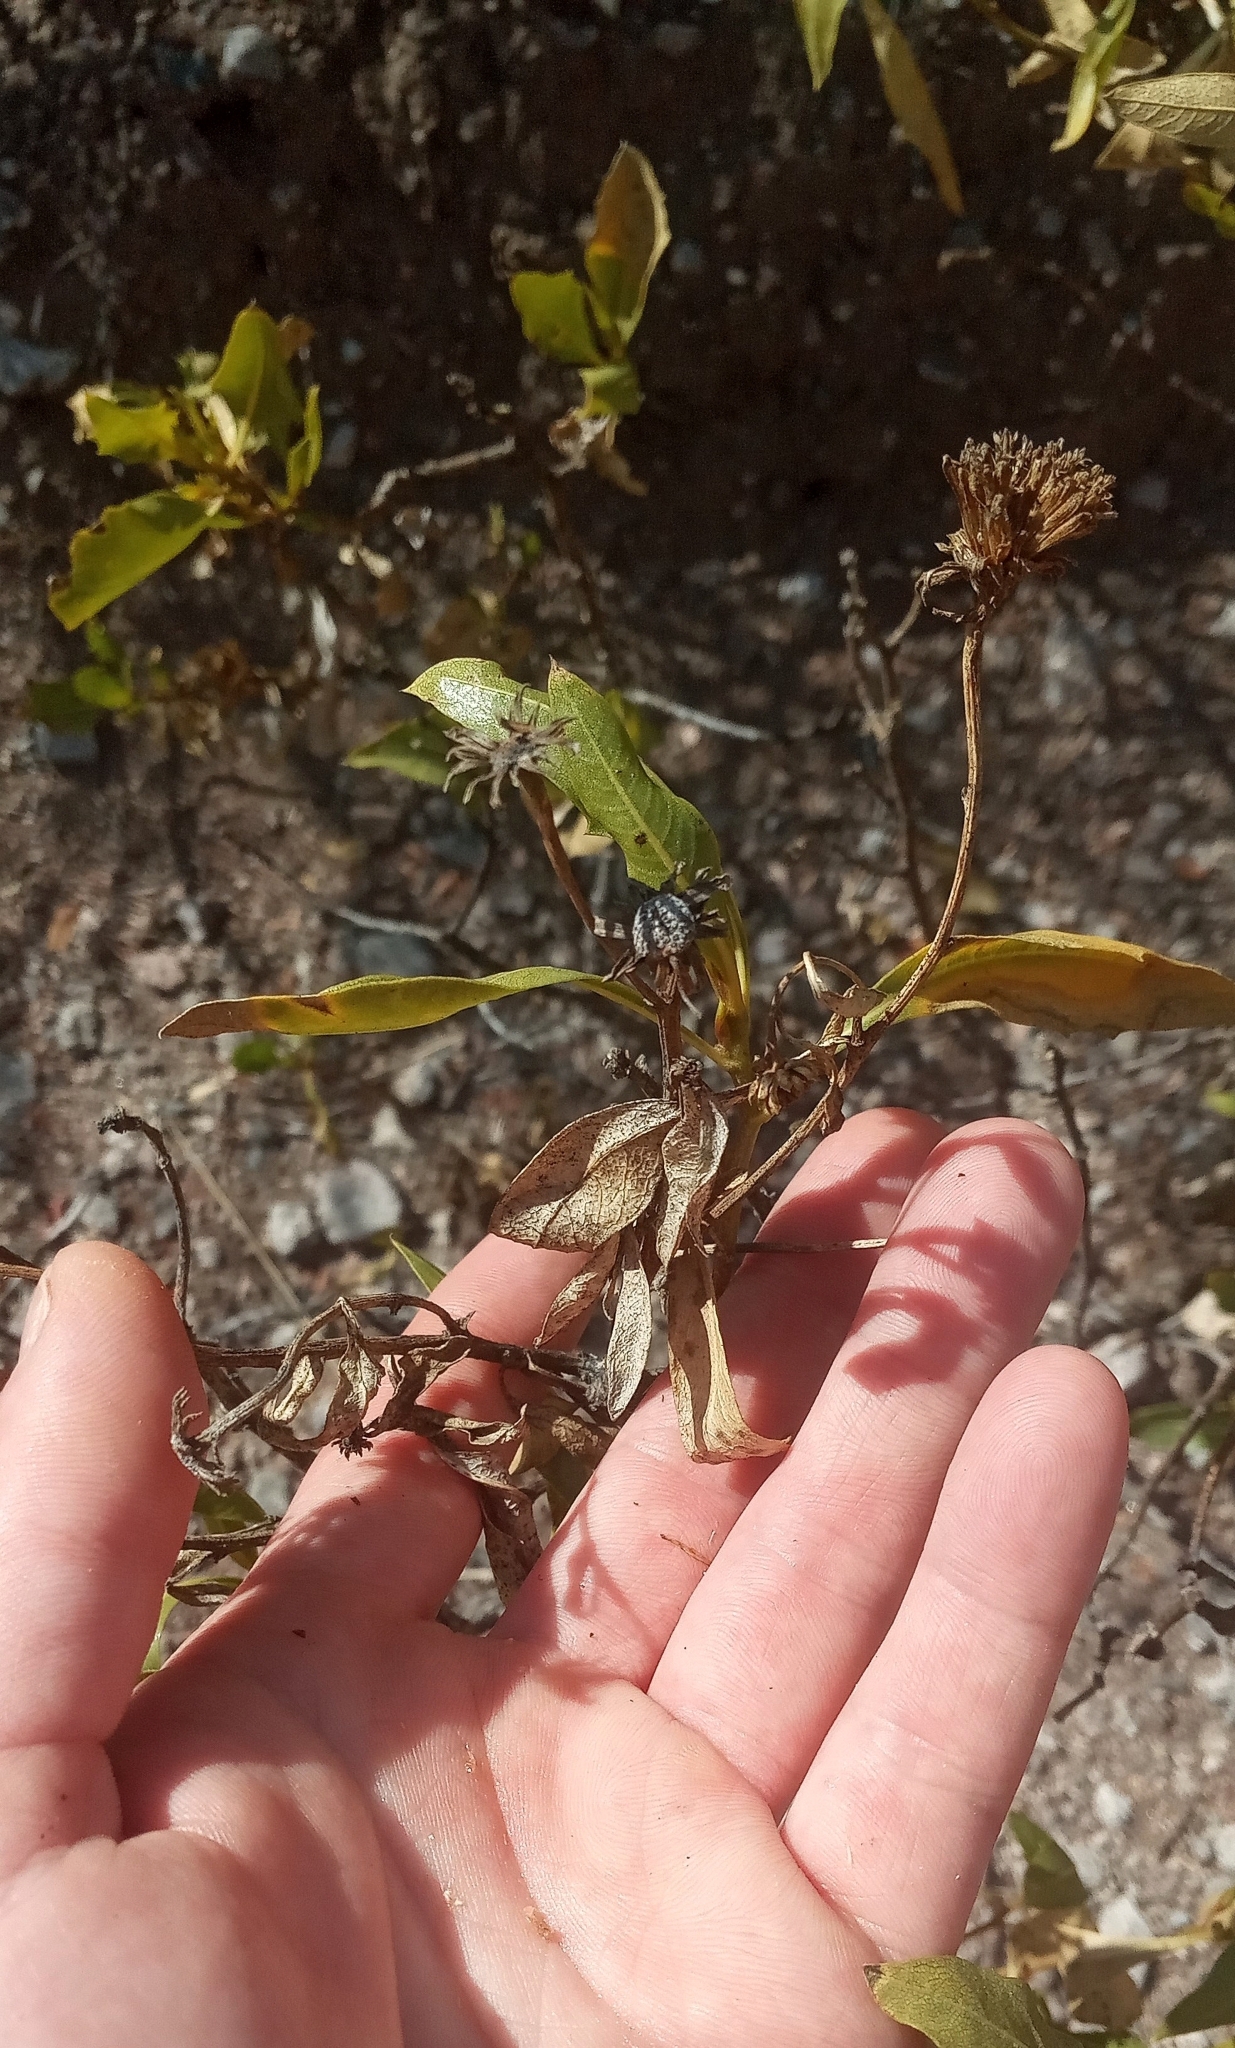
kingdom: Plantae
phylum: Tracheophyta
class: Magnoliopsida
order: Asterales
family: Asteraceae
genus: Flourensia
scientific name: Flourensia thurifera
